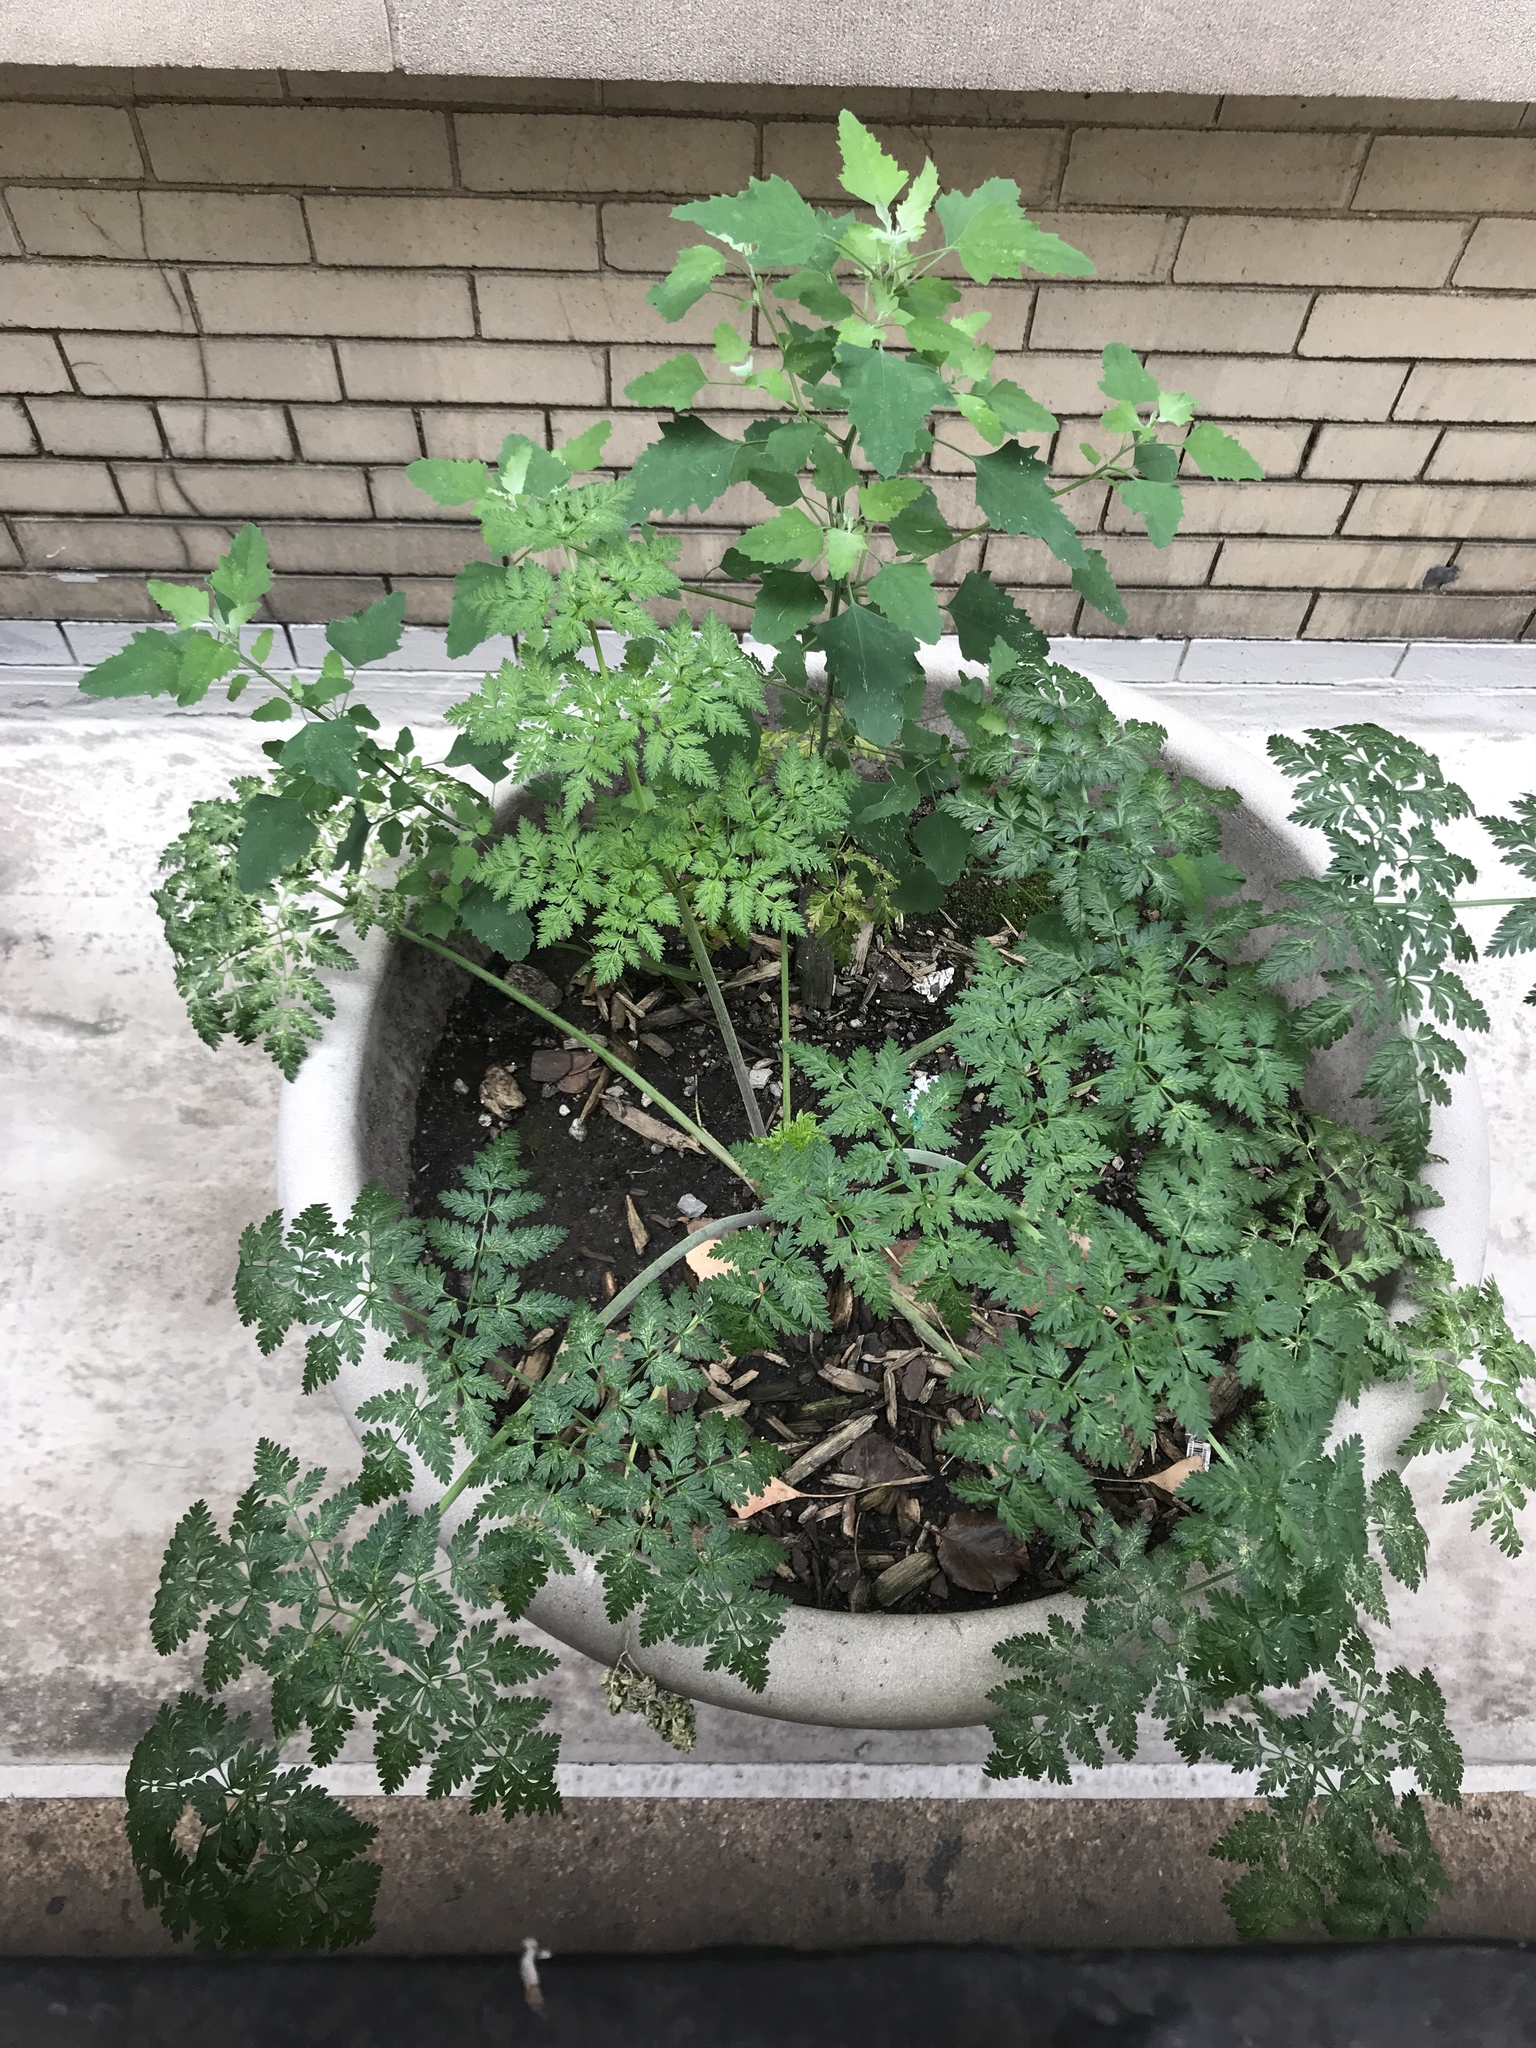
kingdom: Plantae
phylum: Tracheophyta
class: Magnoliopsida
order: Apiales
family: Apiaceae
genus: Conium
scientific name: Conium maculatum
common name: Hemlock
